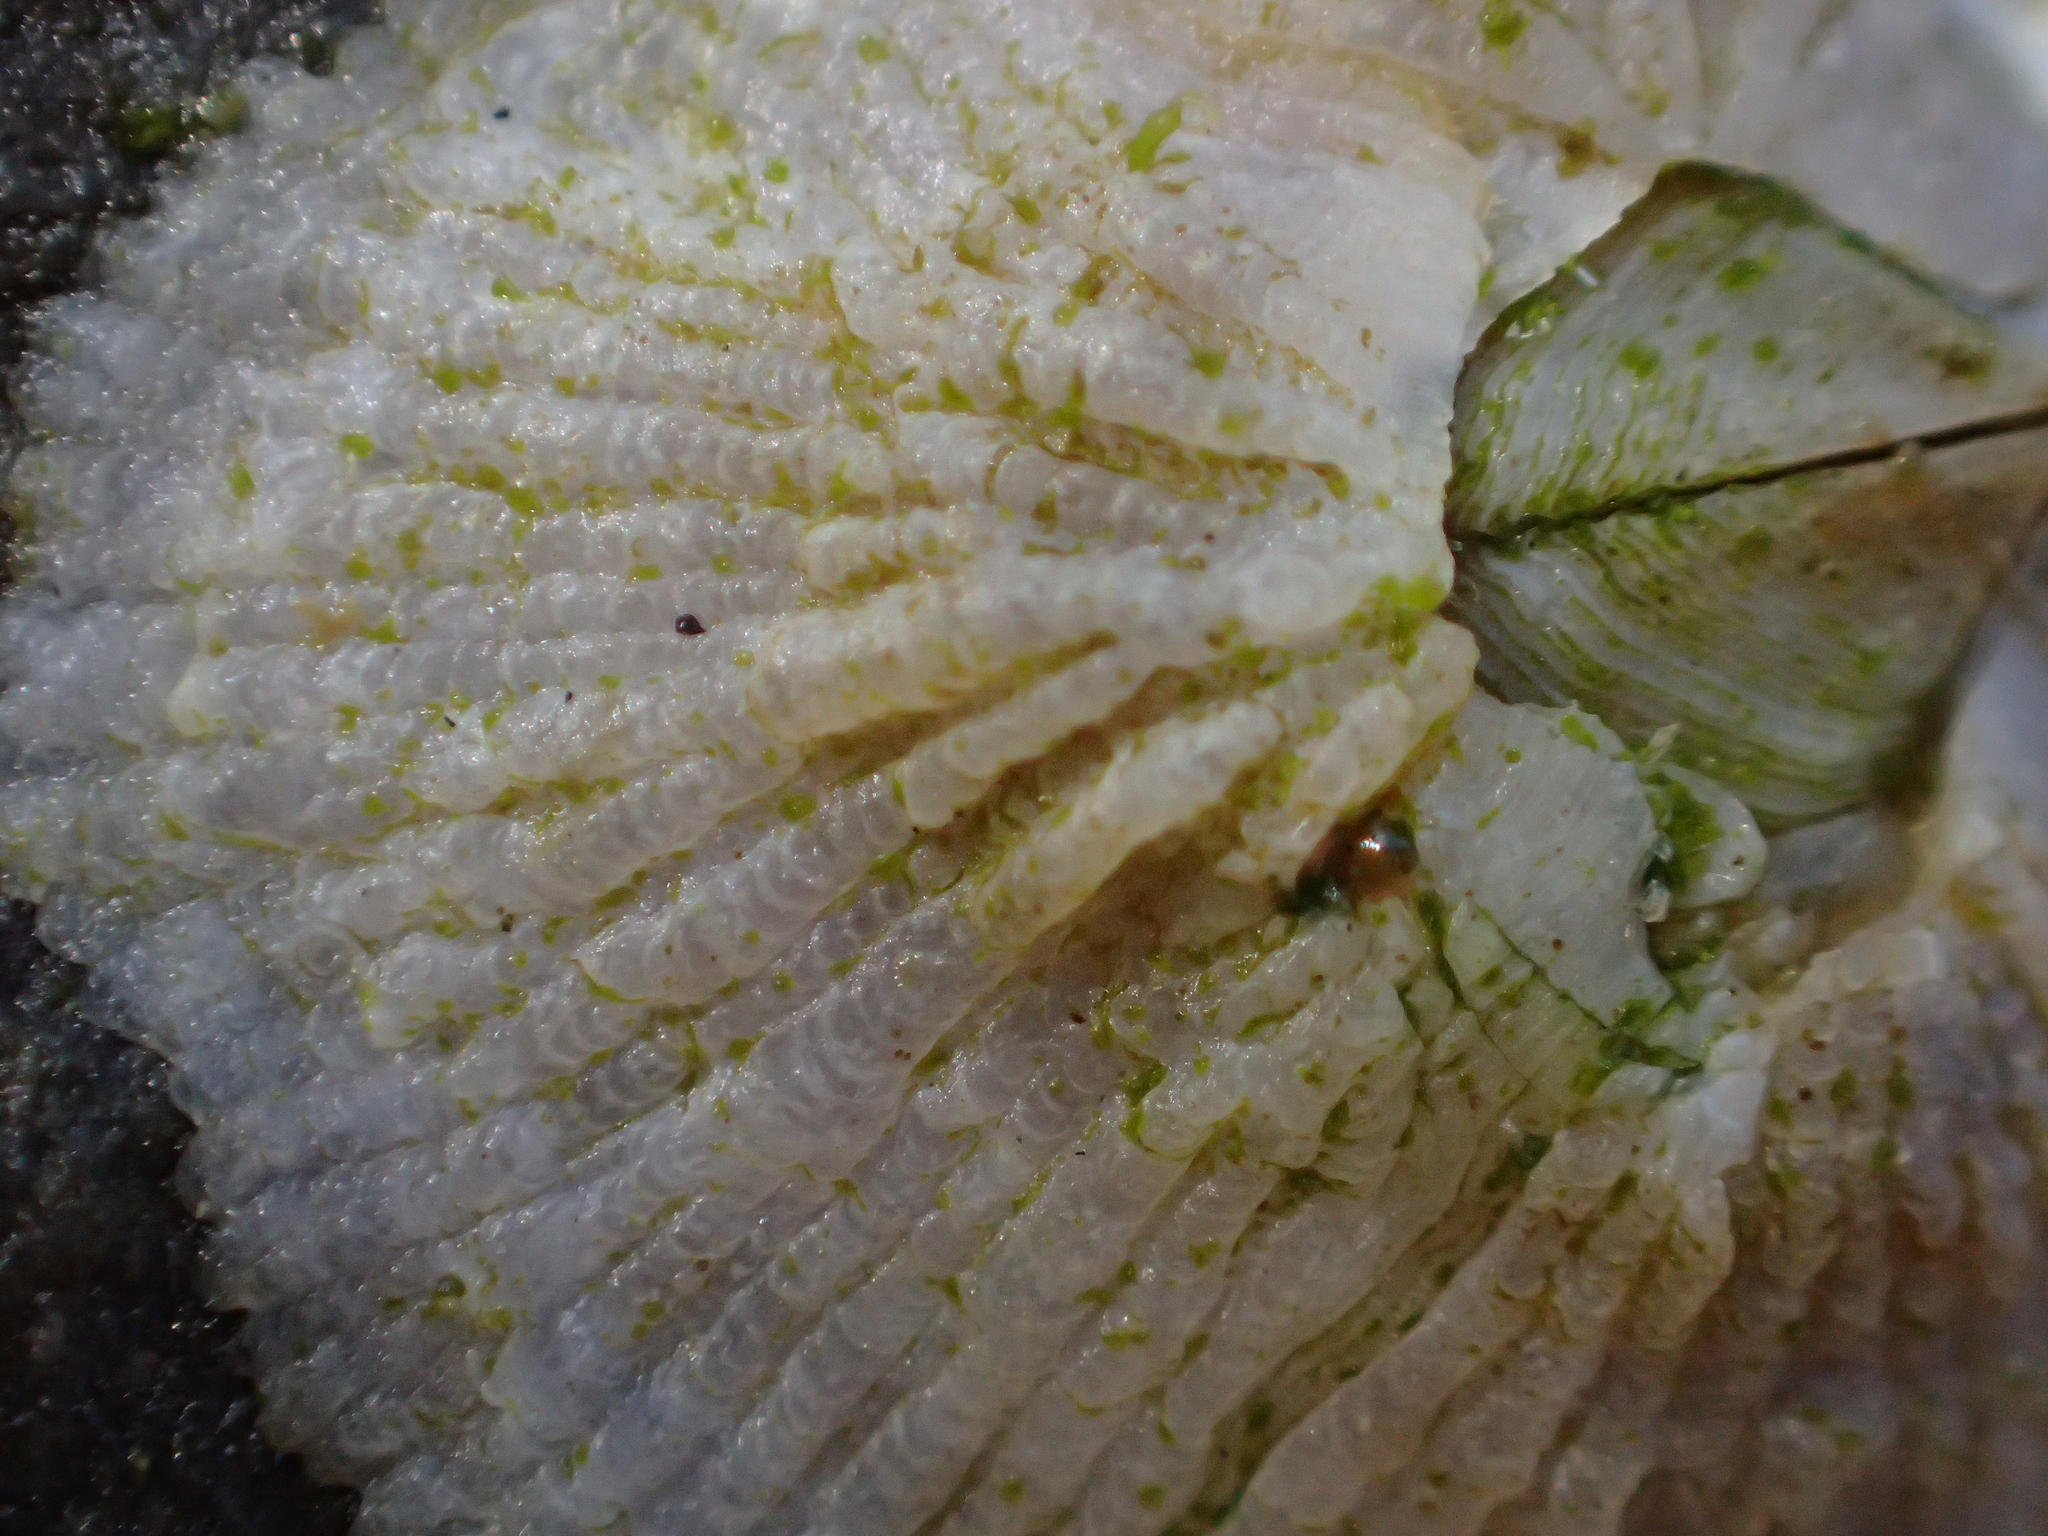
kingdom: Animalia
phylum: Arthropoda
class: Maxillopoda
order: Sessilia
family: Tetraclitidae
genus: Tetraclitella
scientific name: Tetraclitella depressa
